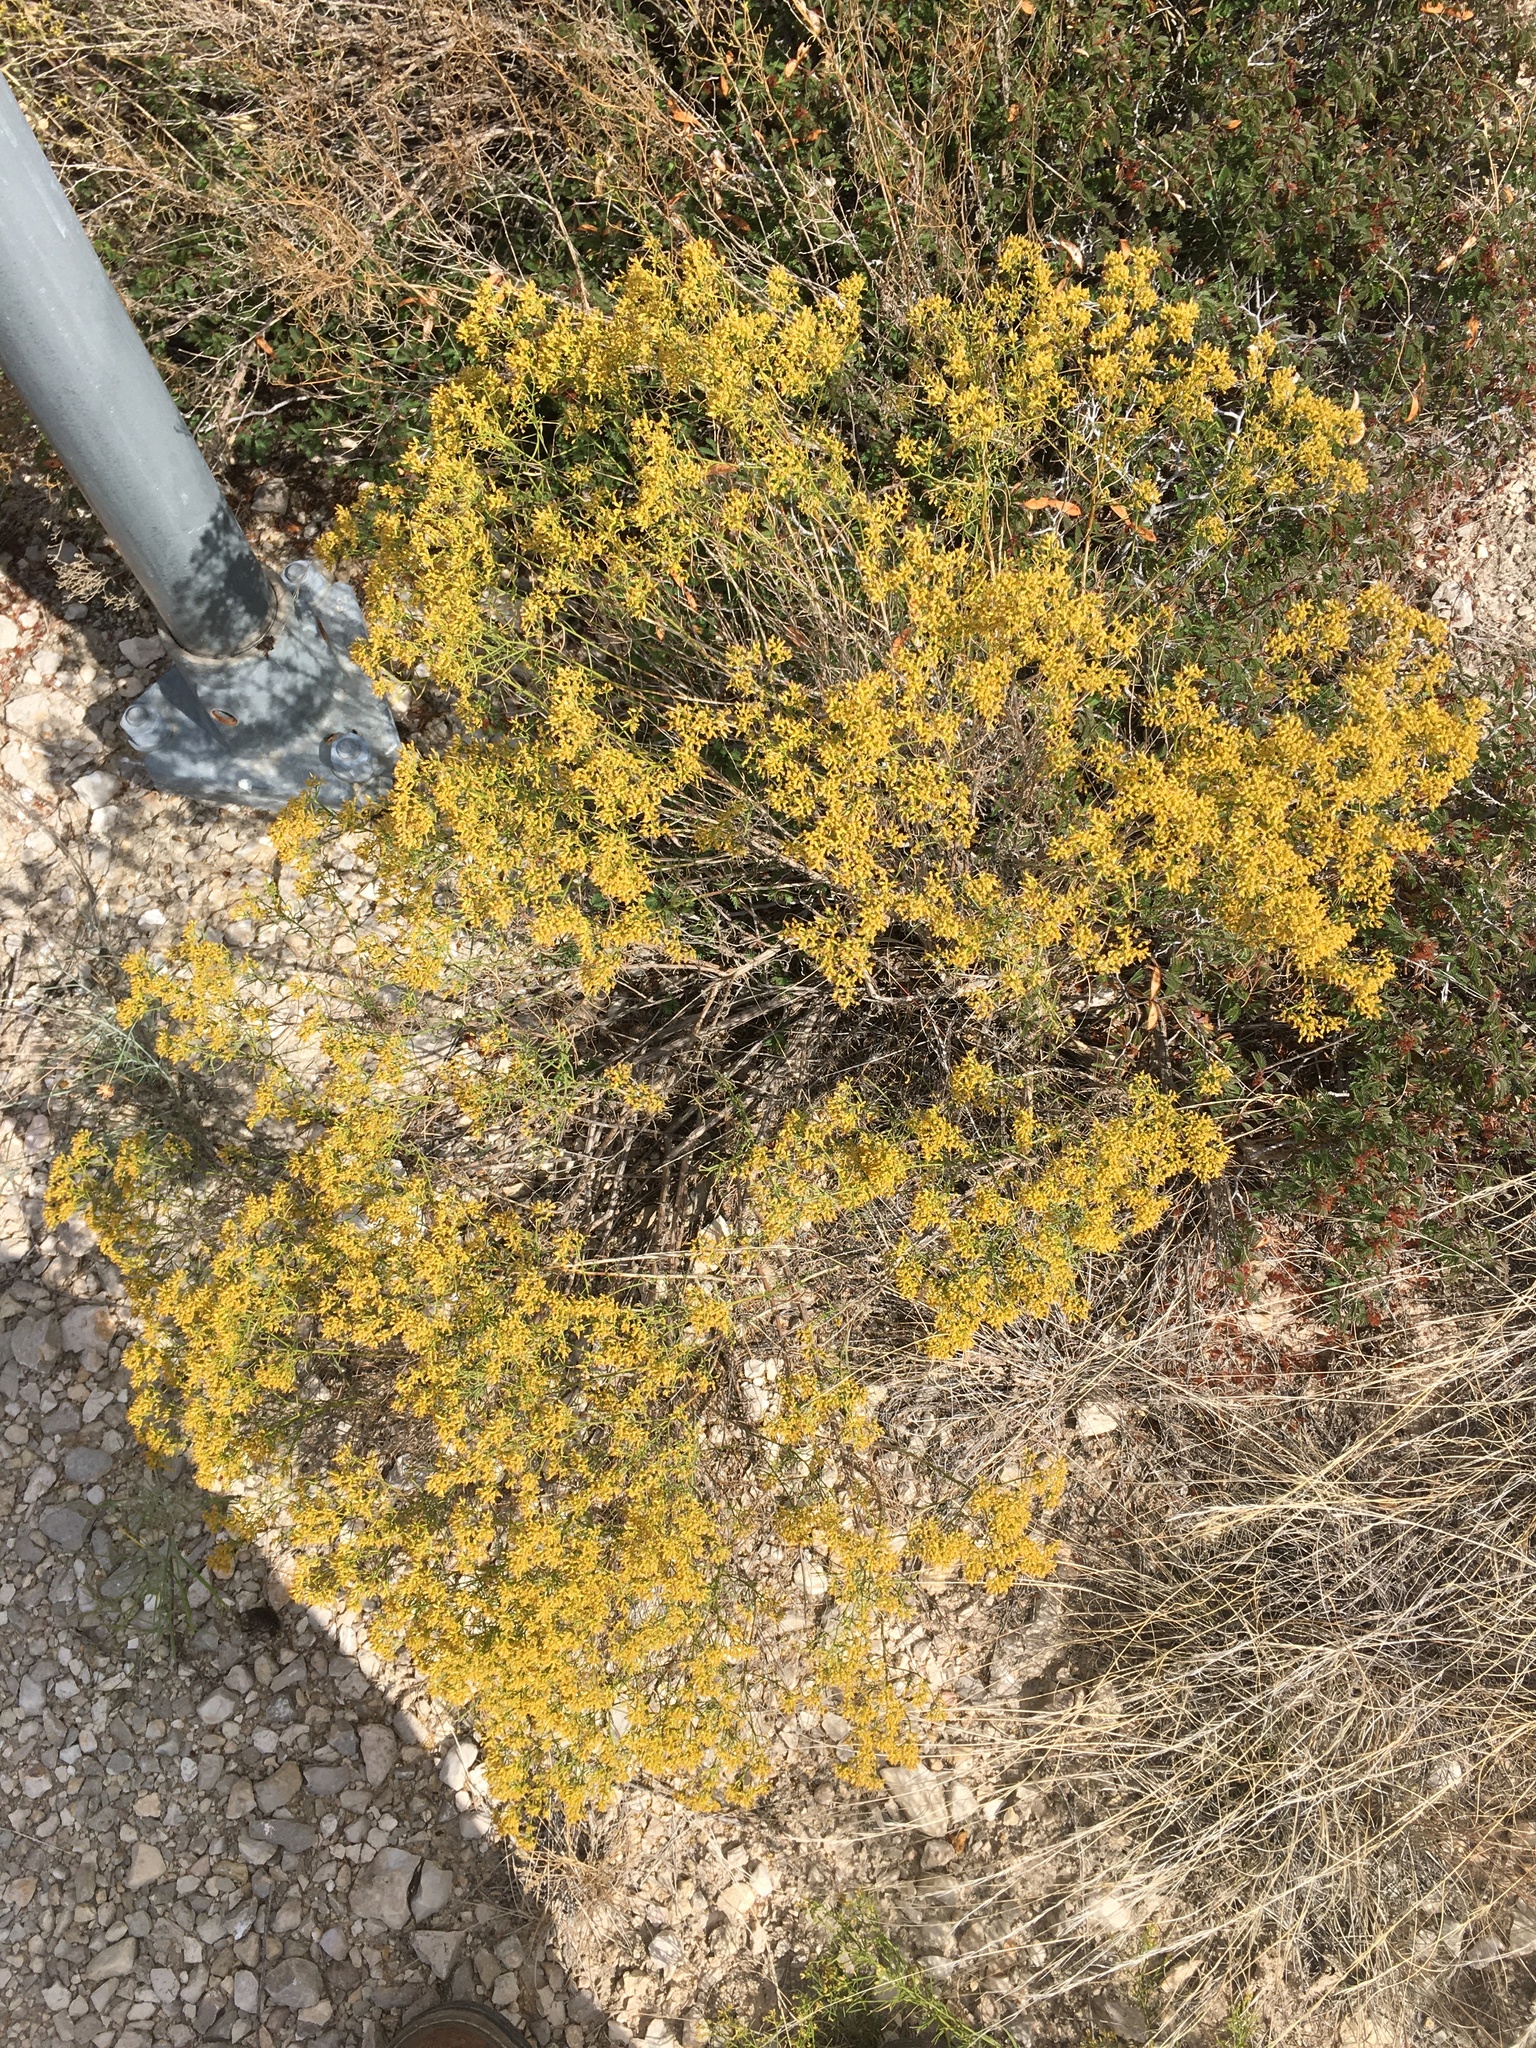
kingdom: Plantae
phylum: Tracheophyta
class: Magnoliopsida
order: Asterales
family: Asteraceae
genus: Gymnosperma
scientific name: Gymnosperma glutinosum
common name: Gumhead
